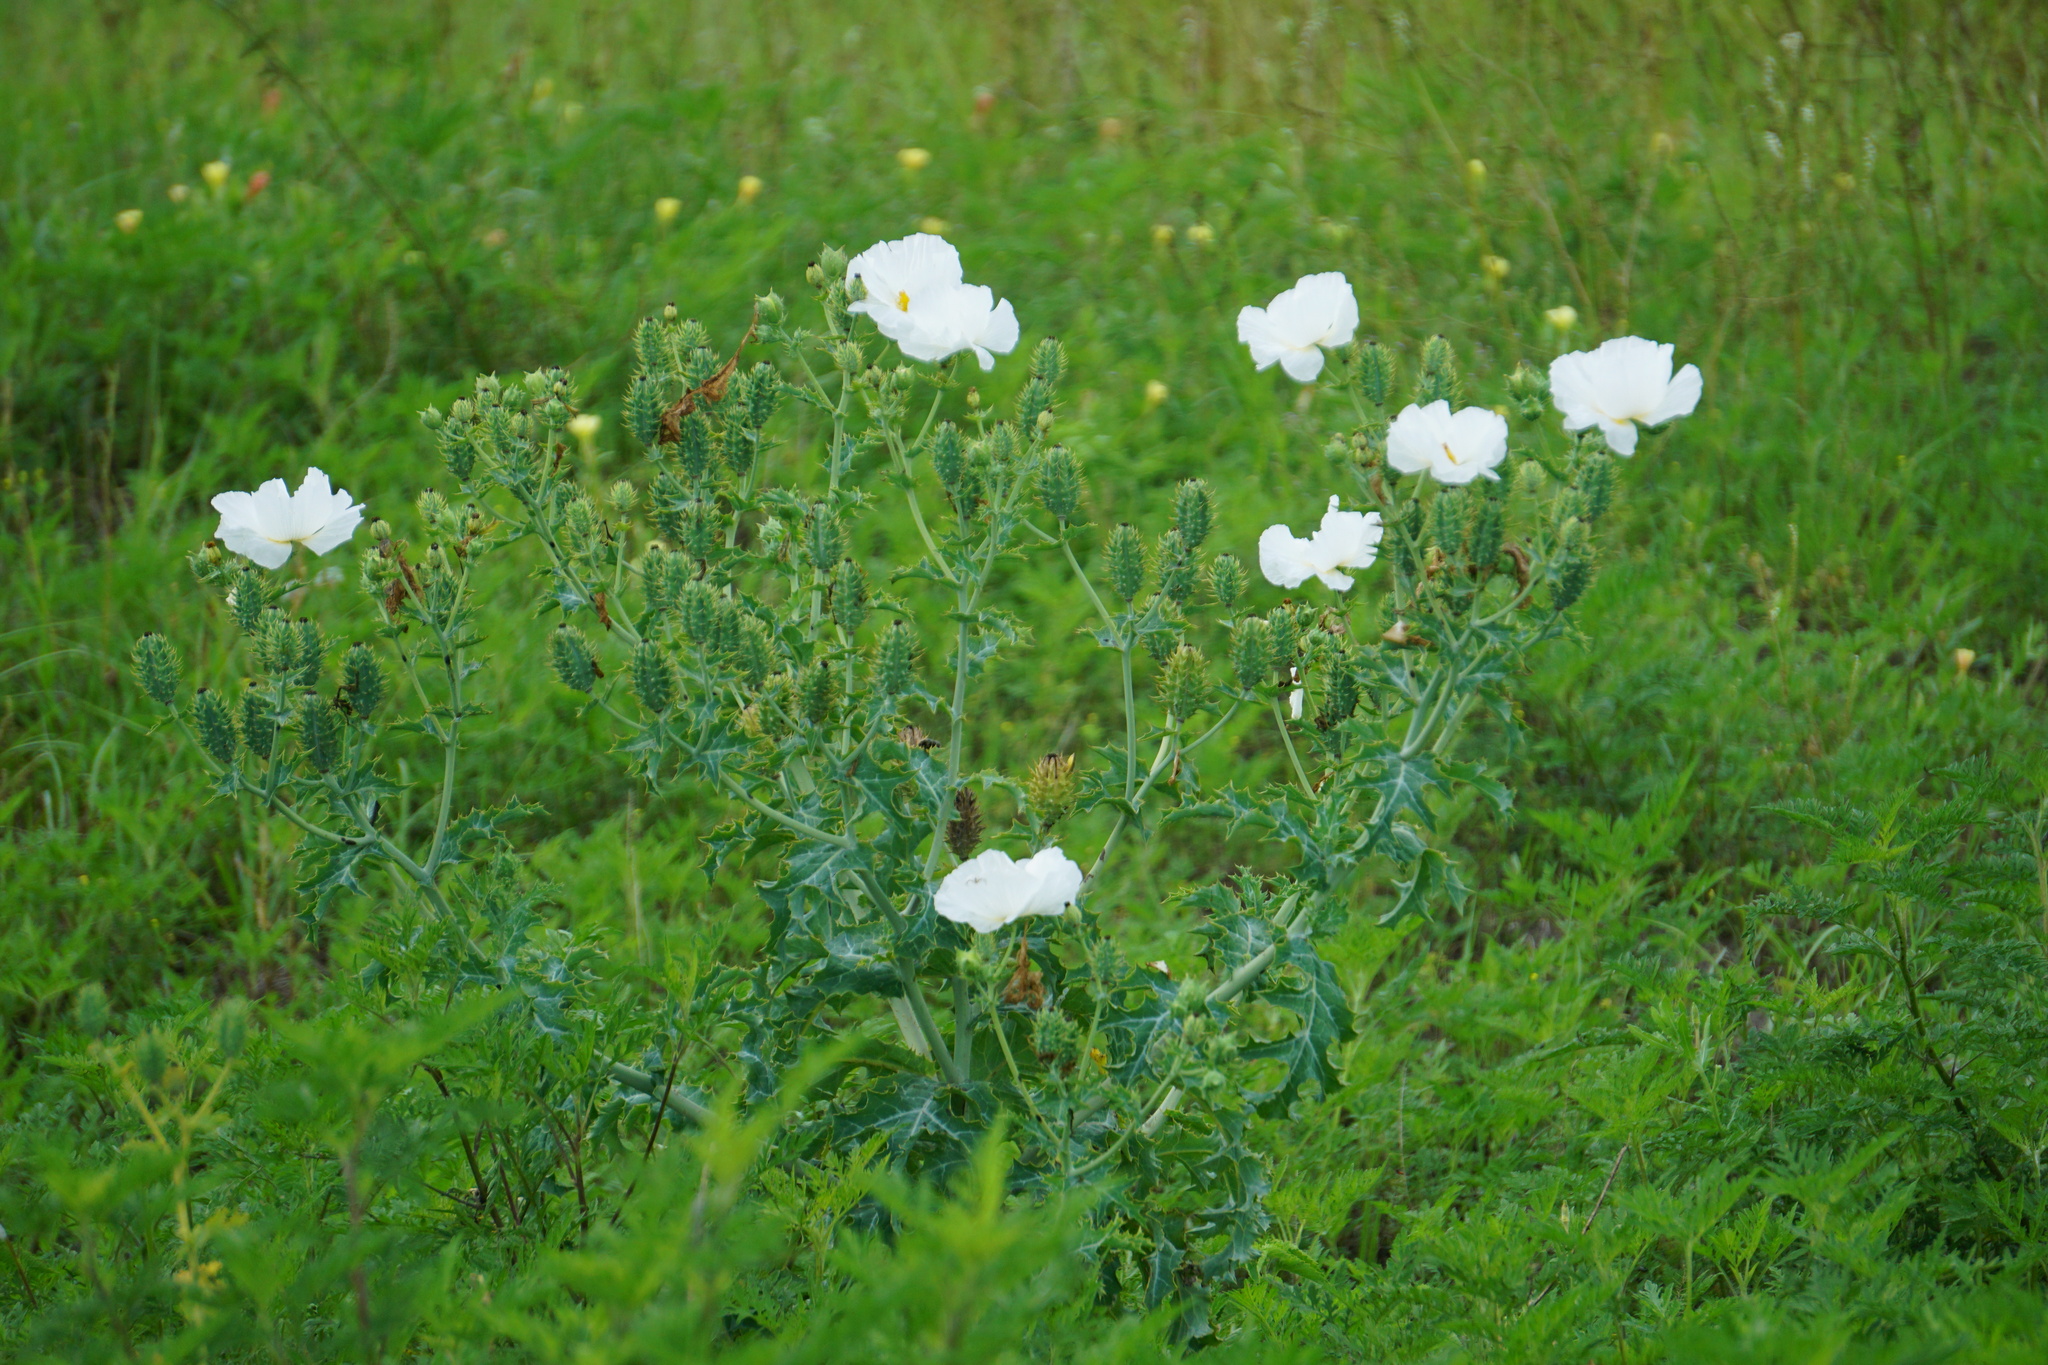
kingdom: Plantae
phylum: Tracheophyta
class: Magnoliopsida
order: Ranunculales
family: Papaveraceae
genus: Argemone
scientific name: Argemone albiflora
